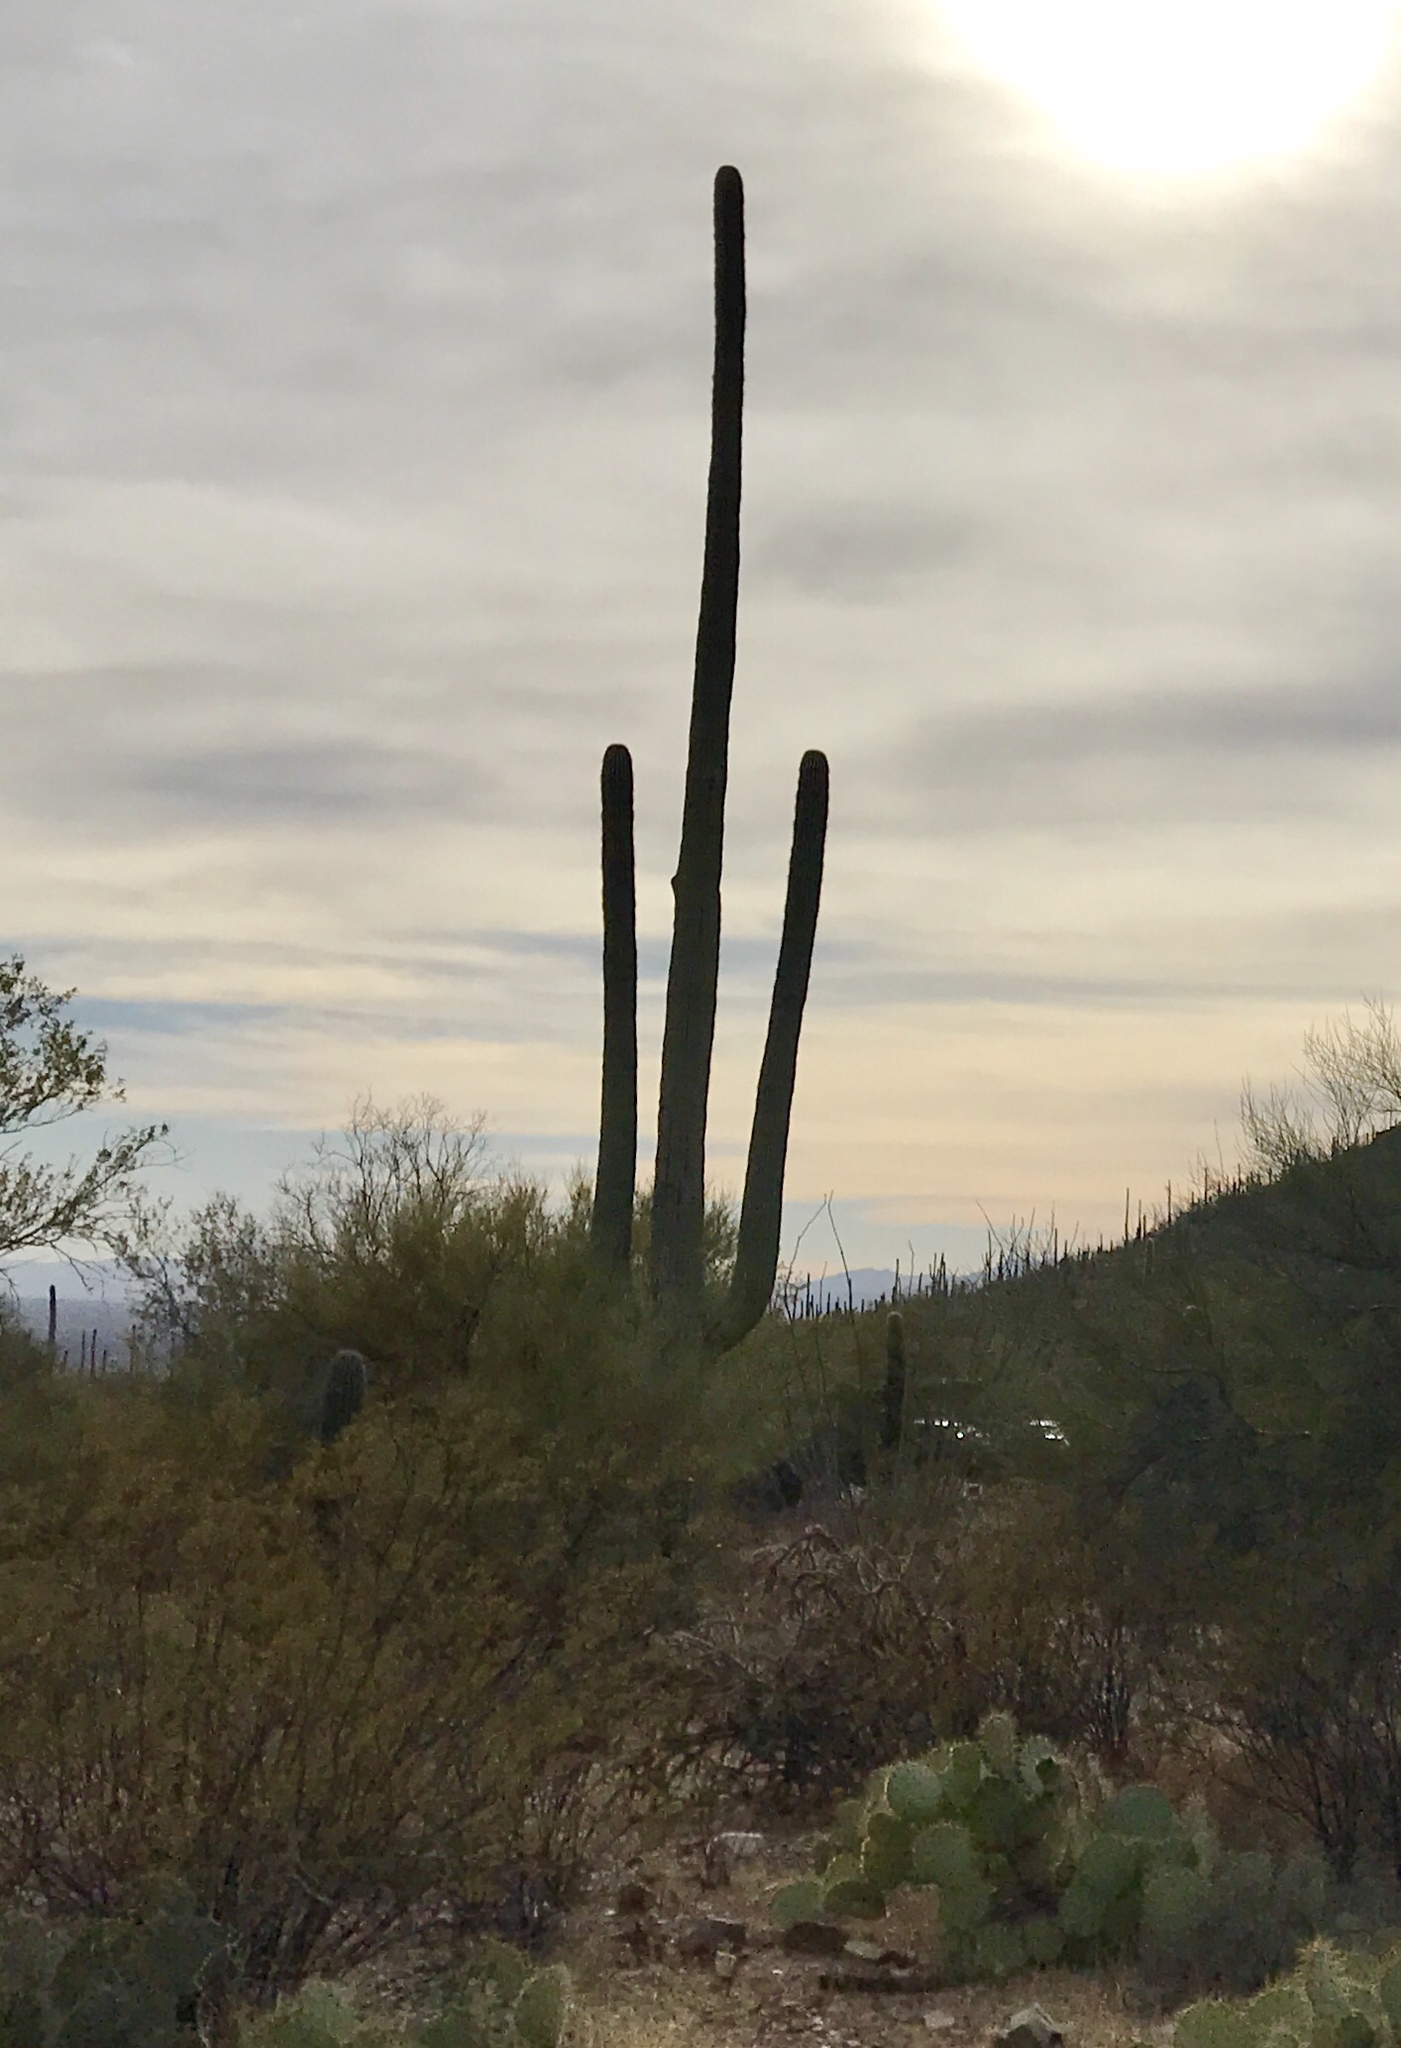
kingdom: Plantae
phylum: Tracheophyta
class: Magnoliopsida
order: Caryophyllales
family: Cactaceae
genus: Carnegiea
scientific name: Carnegiea gigantea
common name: Saguaro
